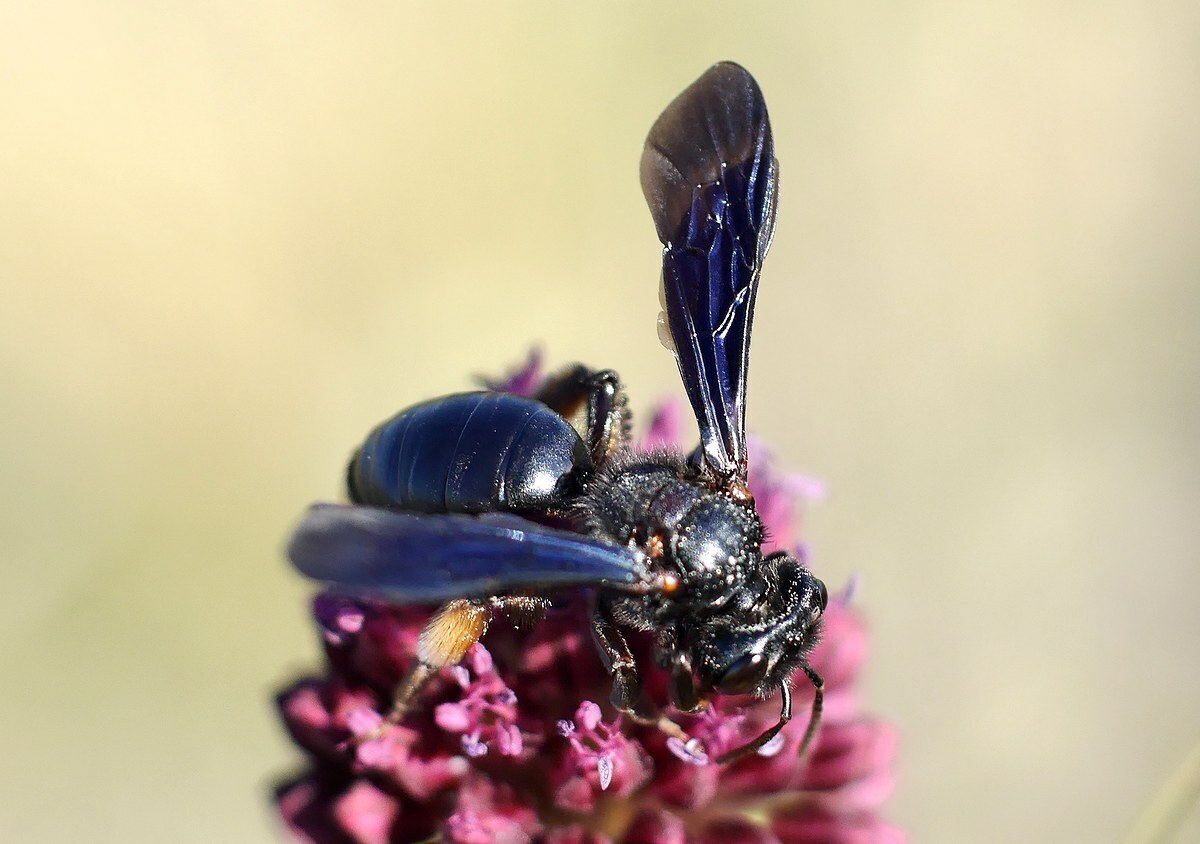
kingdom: Animalia
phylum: Arthropoda
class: Insecta
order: Hymenoptera
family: Andrenidae
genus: Andrena
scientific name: Andrena fuscosa
